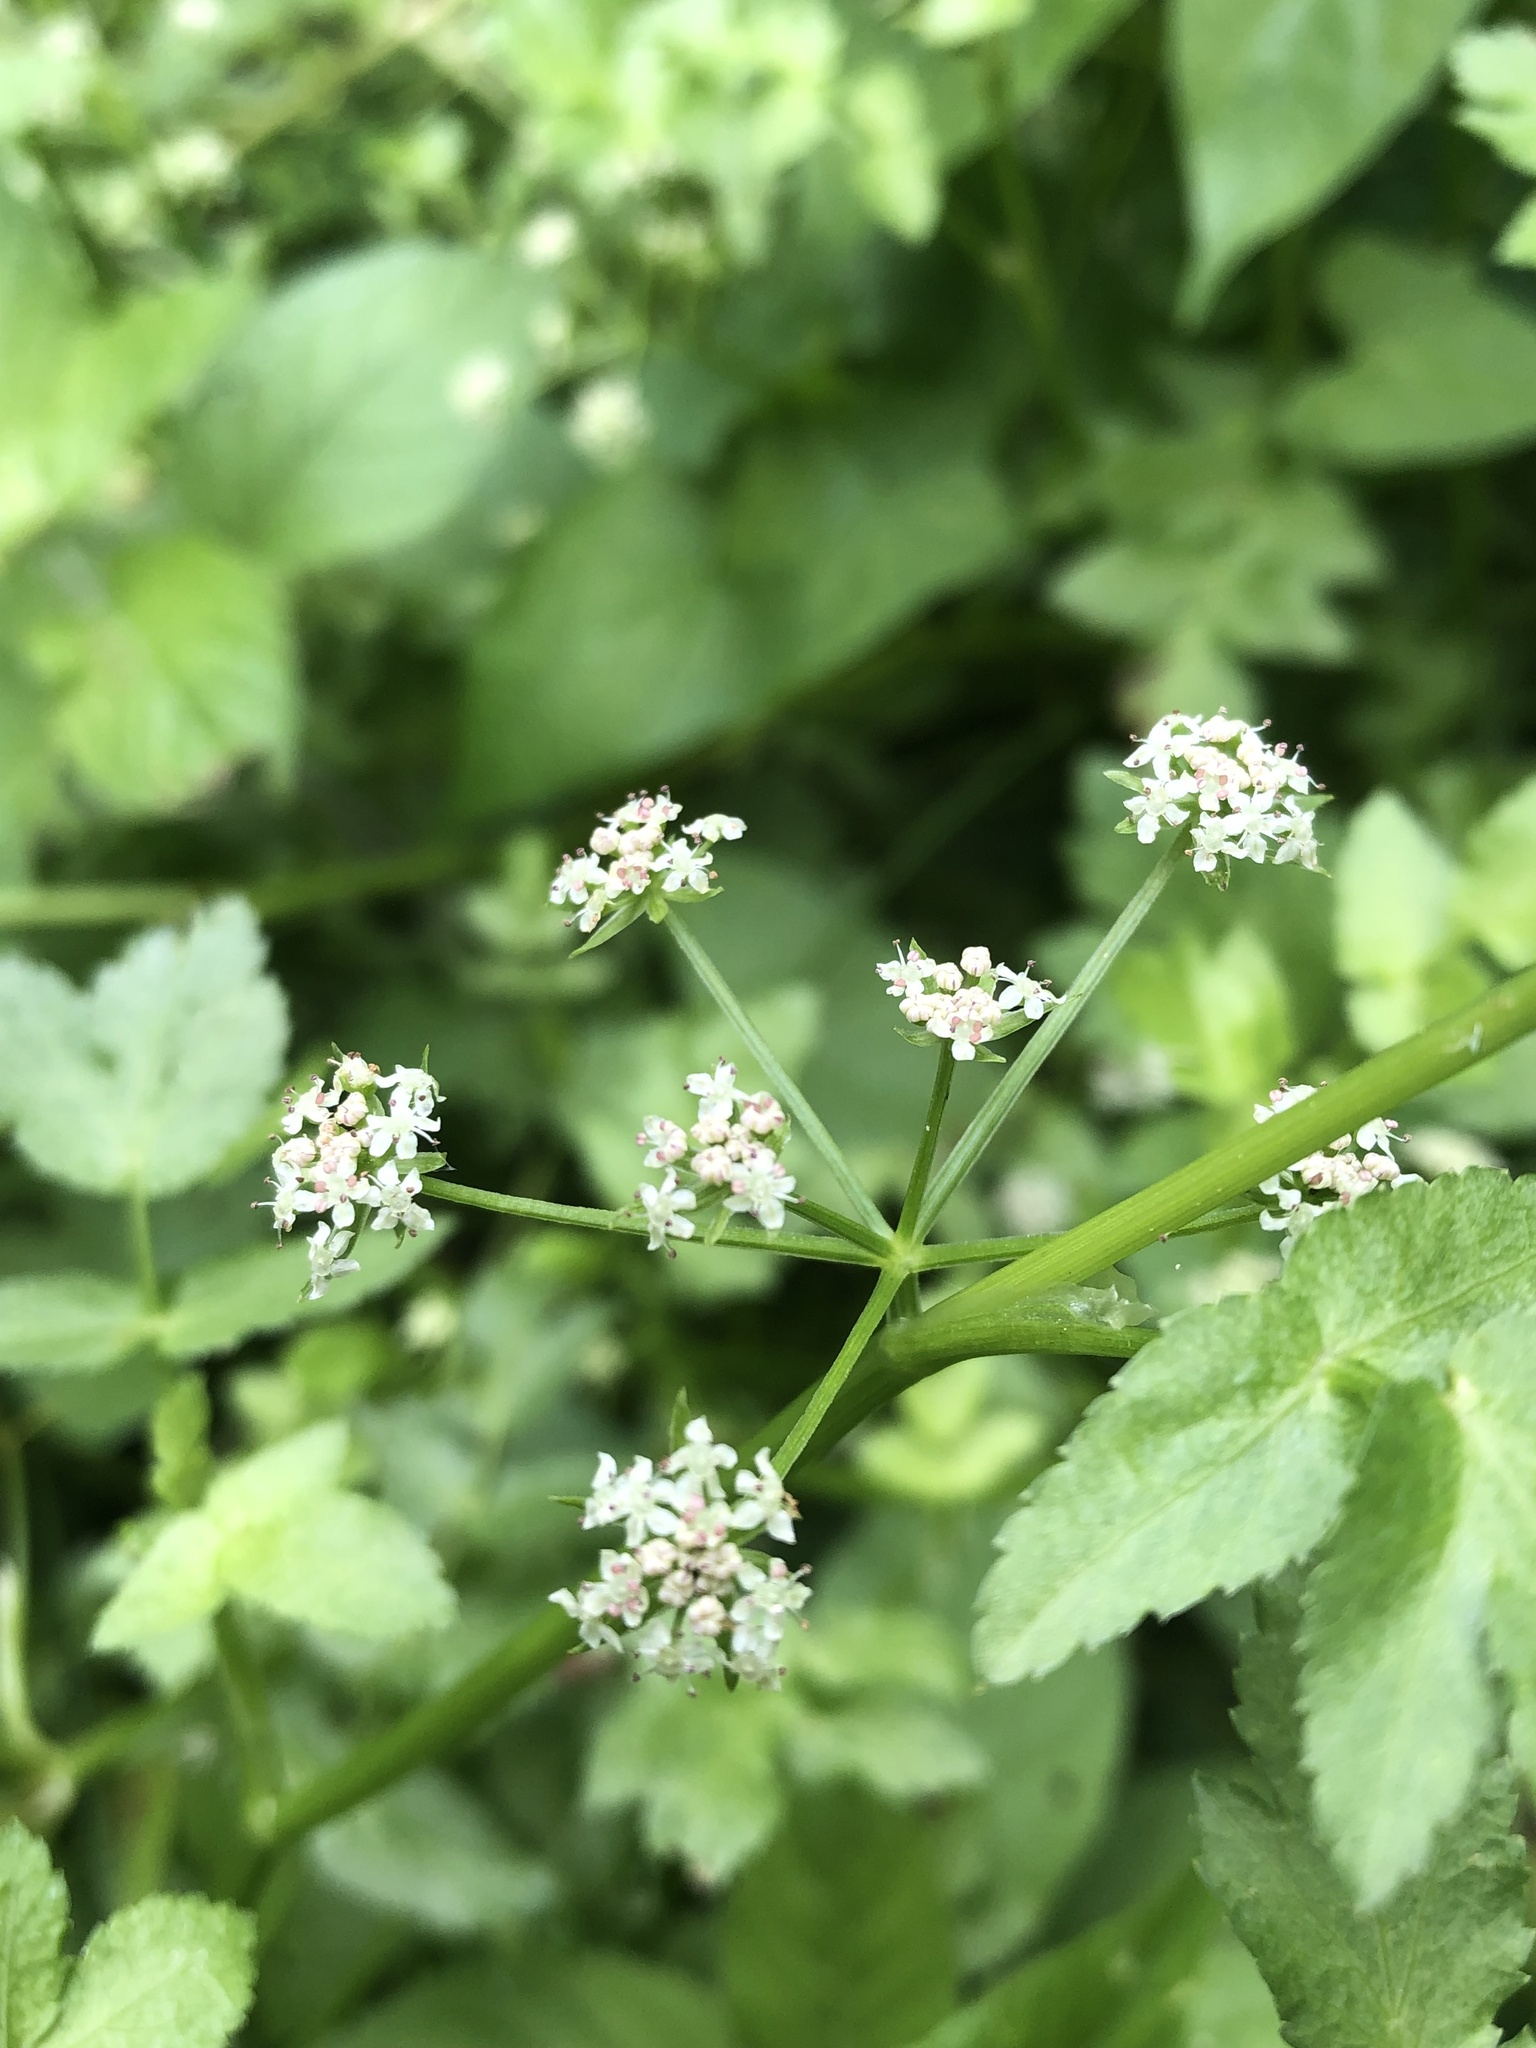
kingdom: Plantae
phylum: Tracheophyta
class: Magnoliopsida
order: Apiales
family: Apiaceae
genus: Helosciadium
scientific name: Helosciadium nodiflorum
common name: Fool's-watercress
